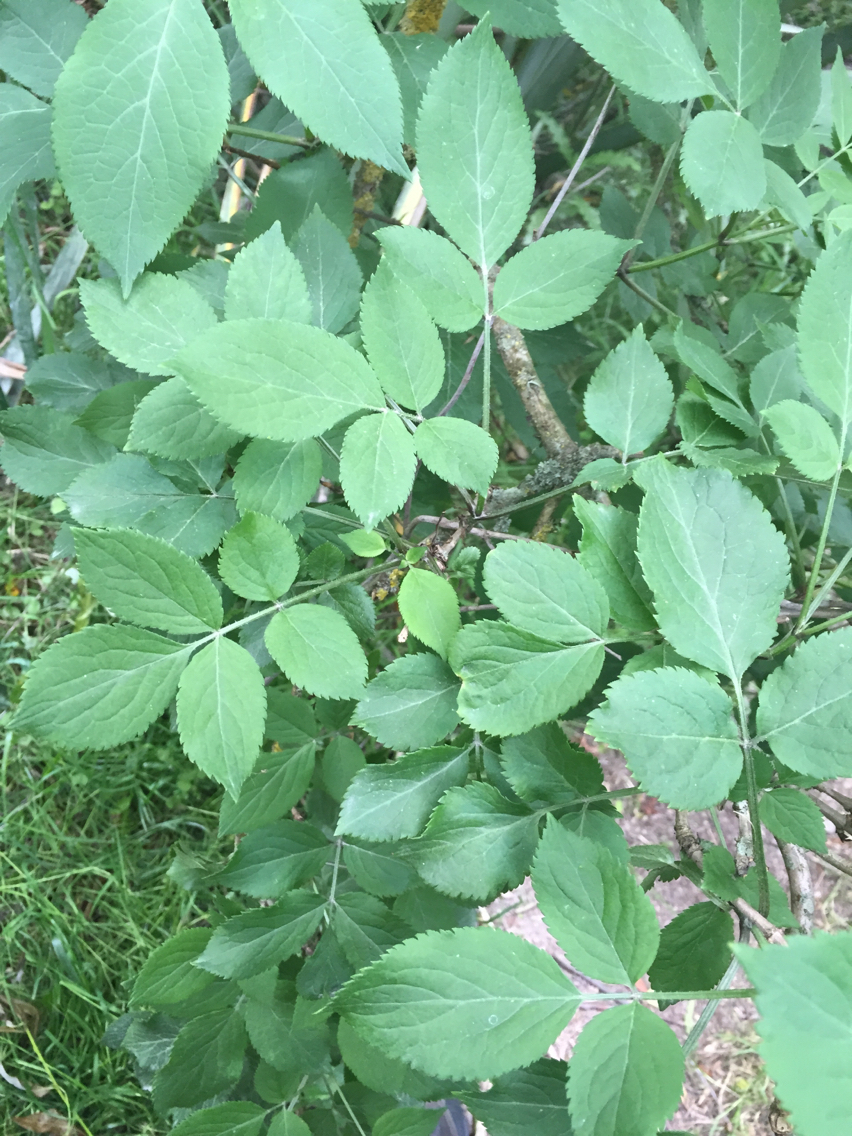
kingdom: Plantae
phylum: Tracheophyta
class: Magnoliopsida
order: Dipsacales
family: Viburnaceae
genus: Sambucus
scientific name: Sambucus nigra
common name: Elder
